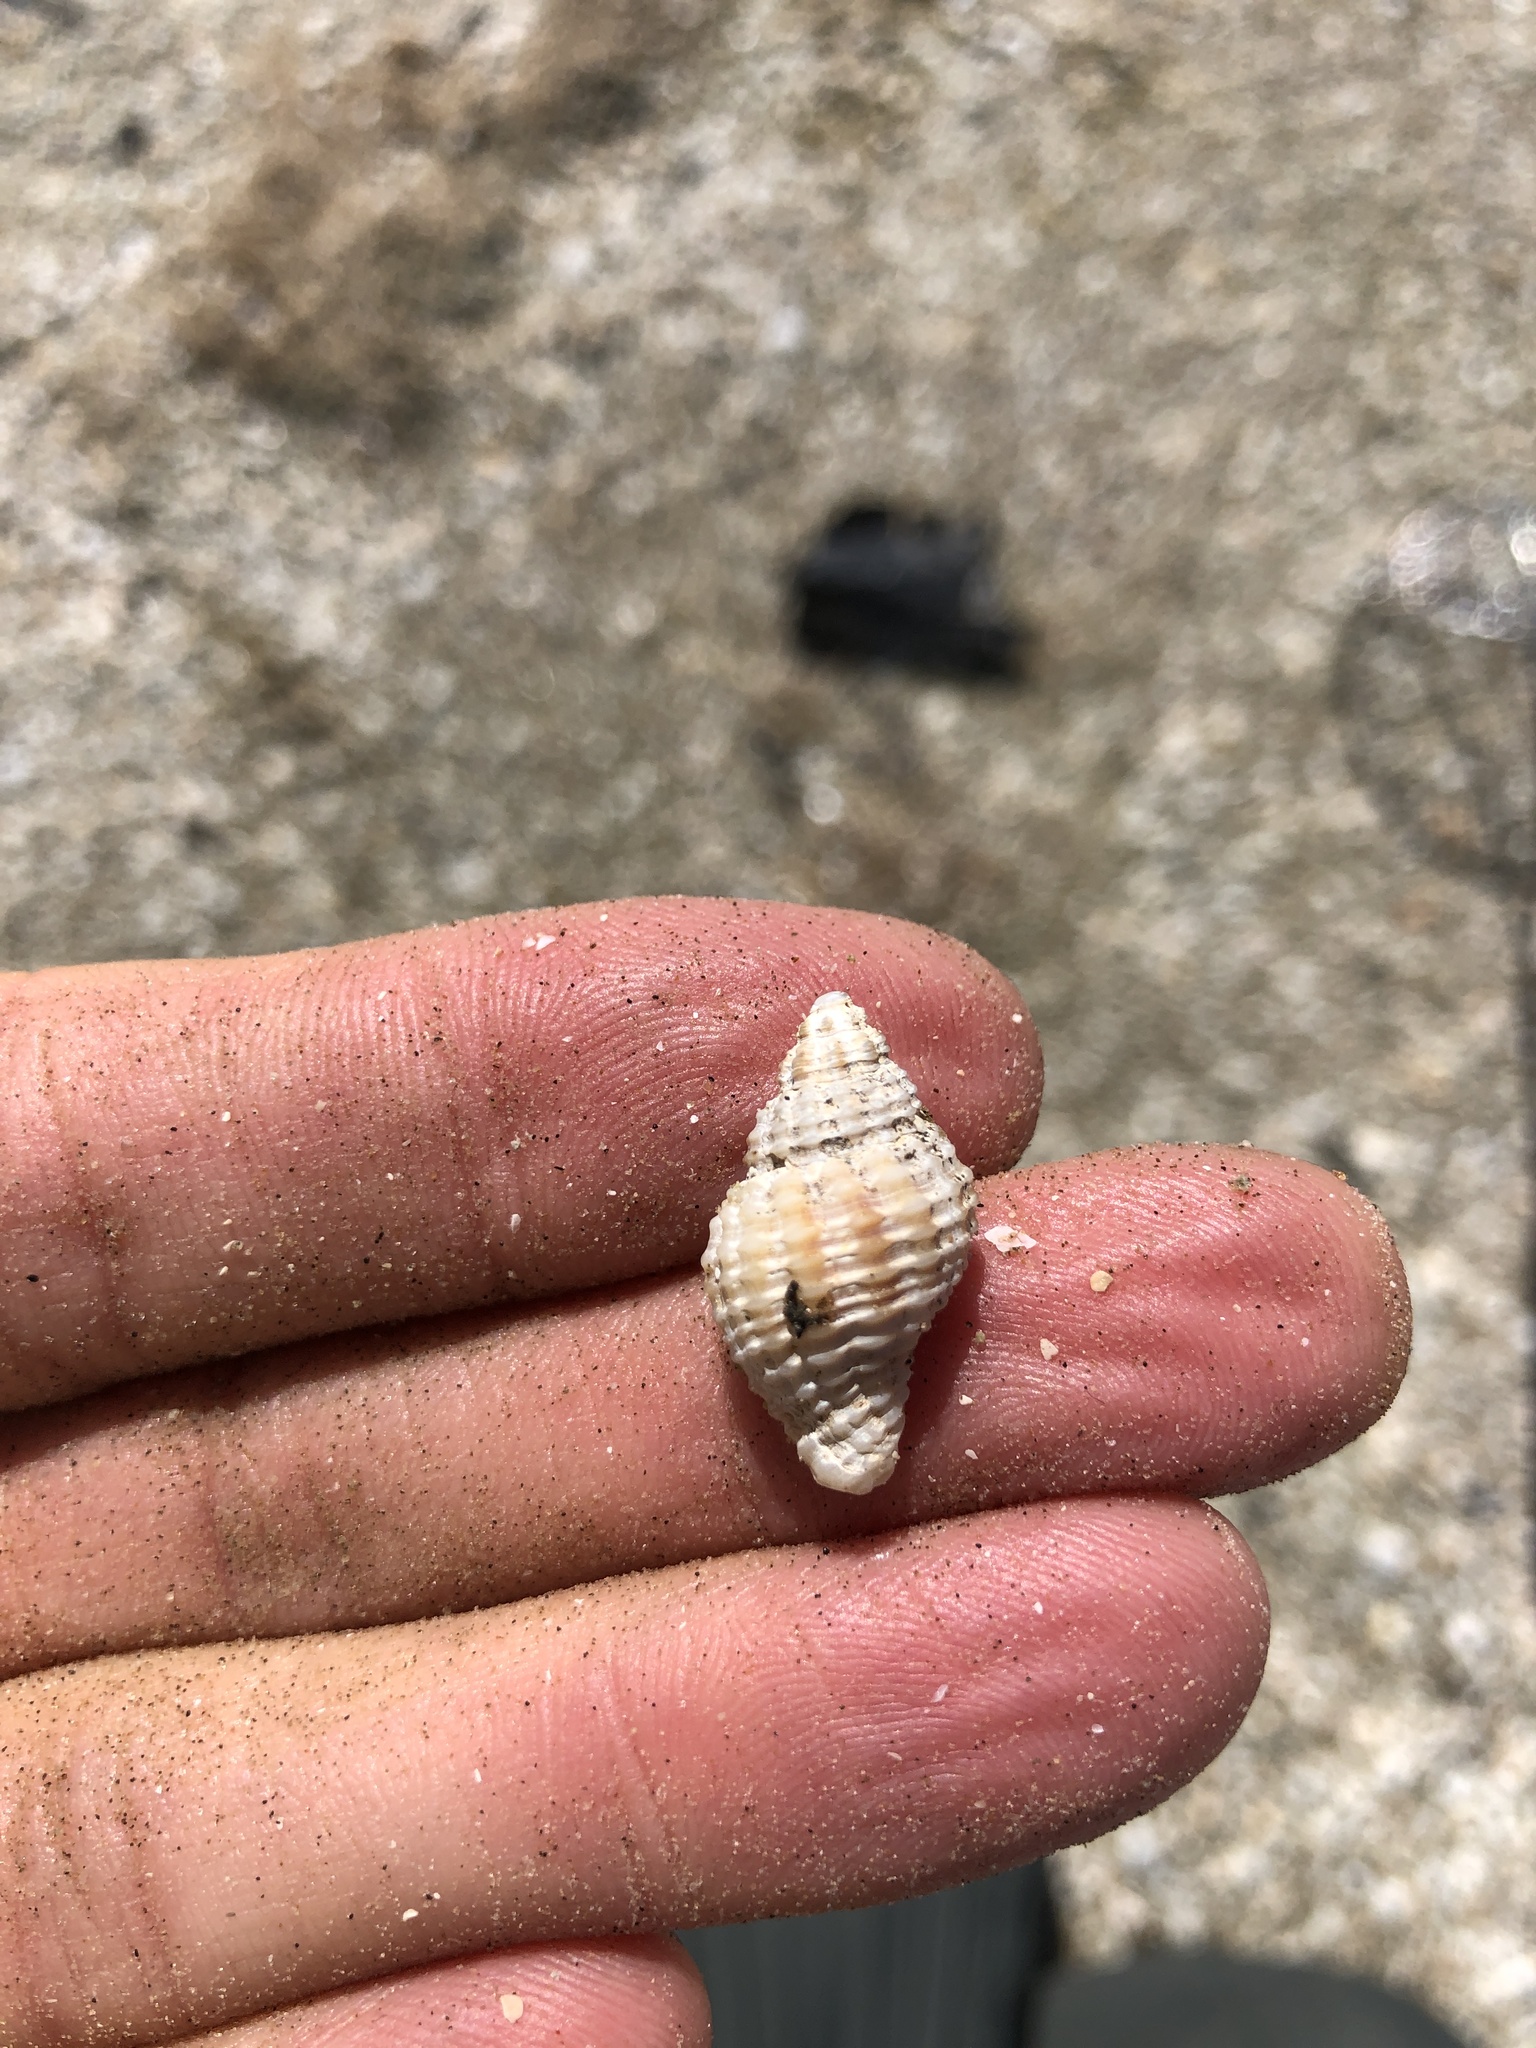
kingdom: Animalia
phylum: Mollusca
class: Gastropoda
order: Neogastropoda
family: Pisaniidae
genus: Solenosteira
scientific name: Solenosteira cancellaria
